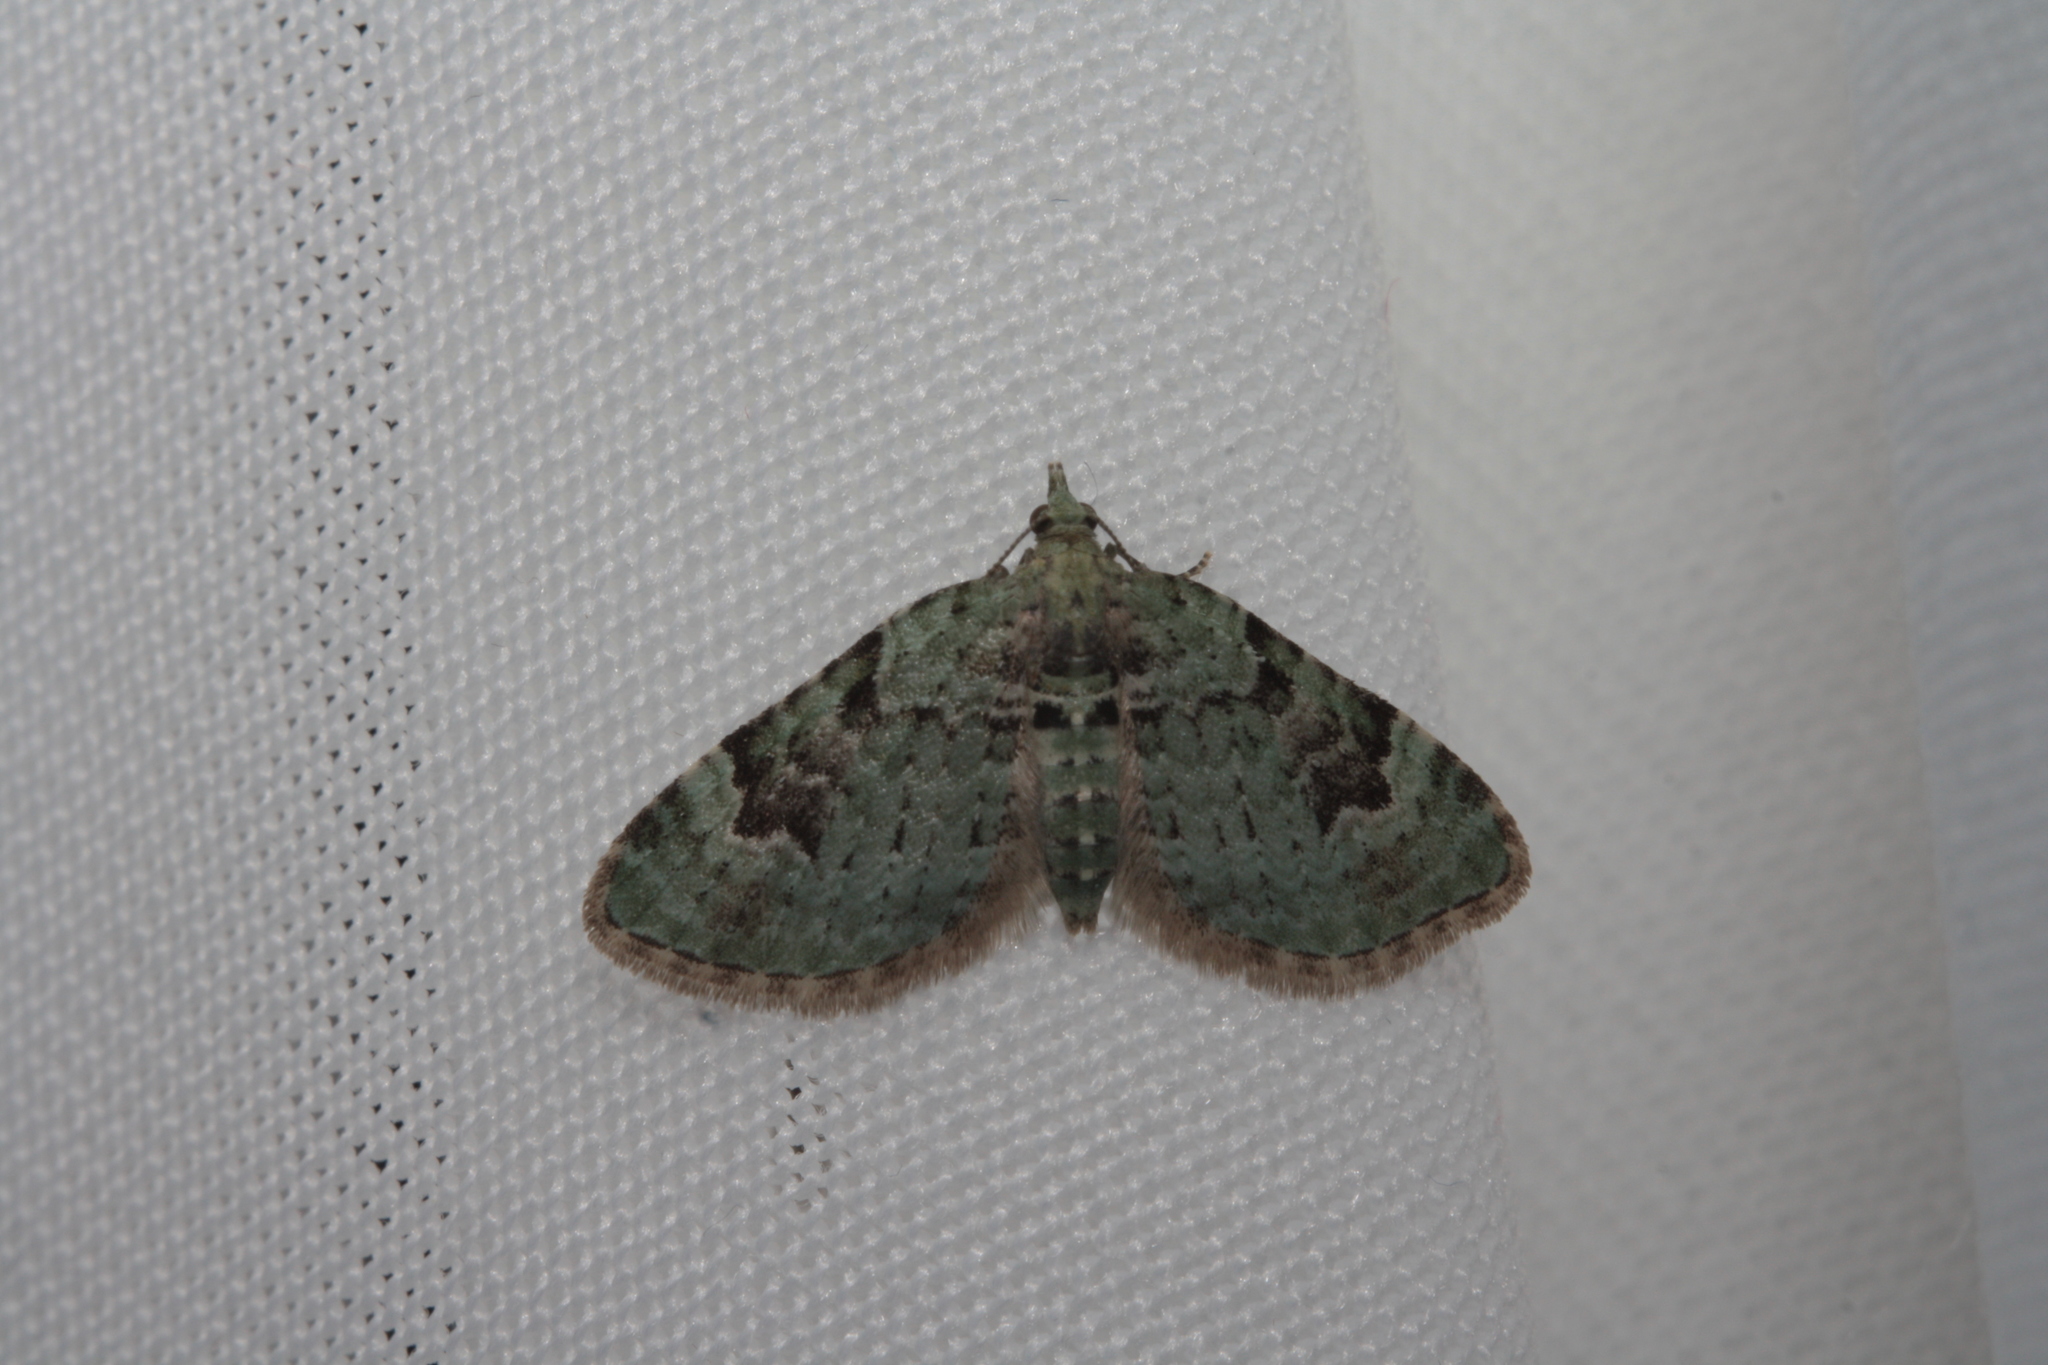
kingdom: Animalia
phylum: Arthropoda
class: Insecta
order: Lepidoptera
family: Geometridae
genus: Chloroclystis
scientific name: Chloroclystis v-ata
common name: V-pug
